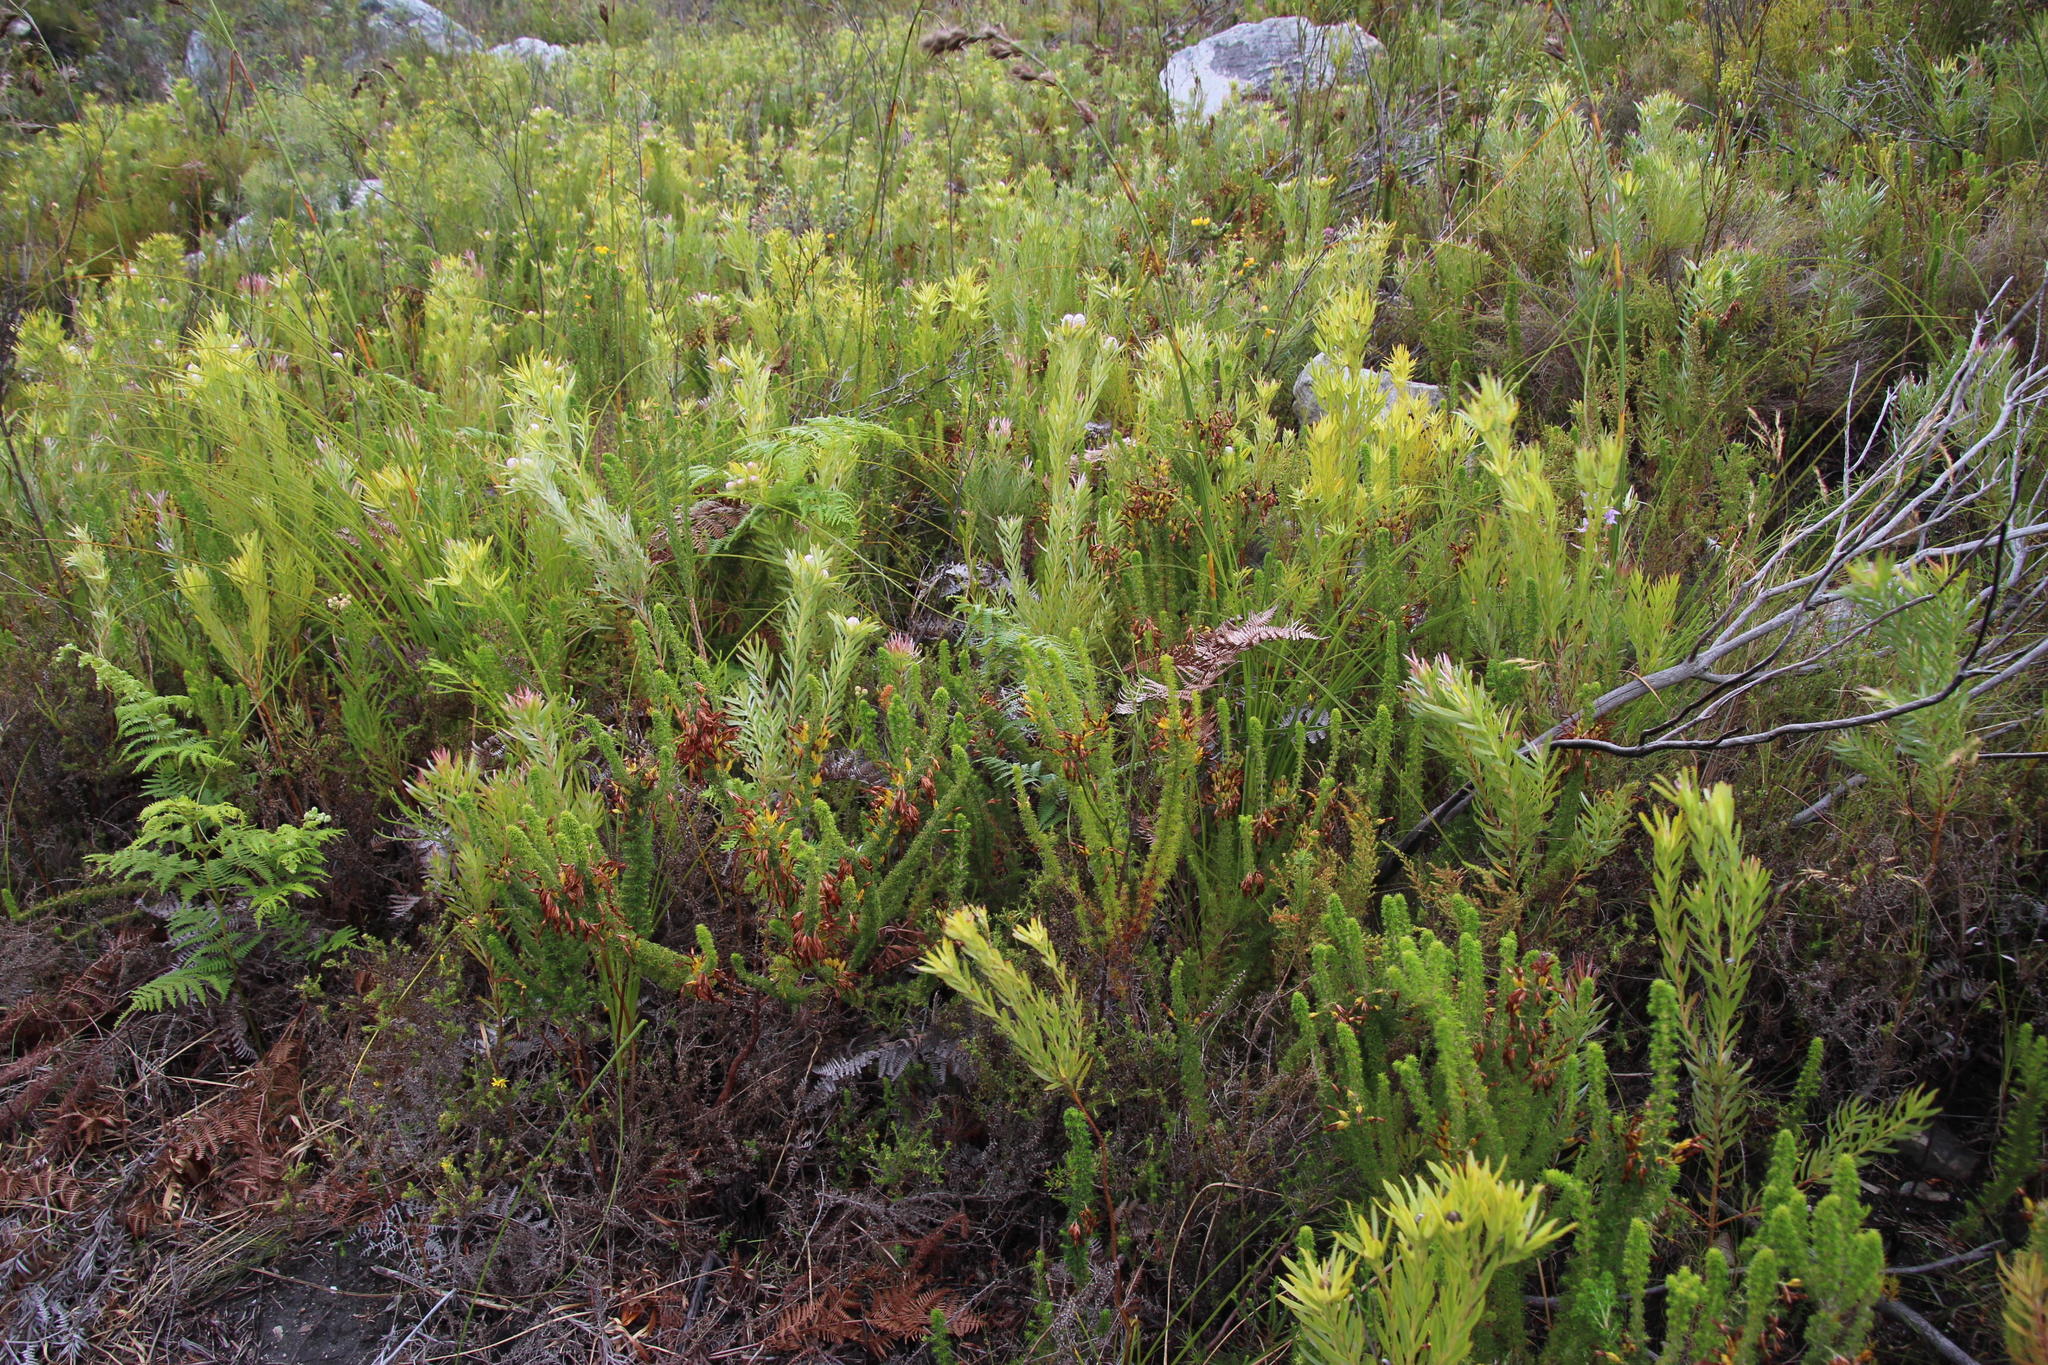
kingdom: Plantae
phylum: Tracheophyta
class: Magnoliopsida
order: Ericales
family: Ericaceae
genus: Erica
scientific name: Erica coccinea
